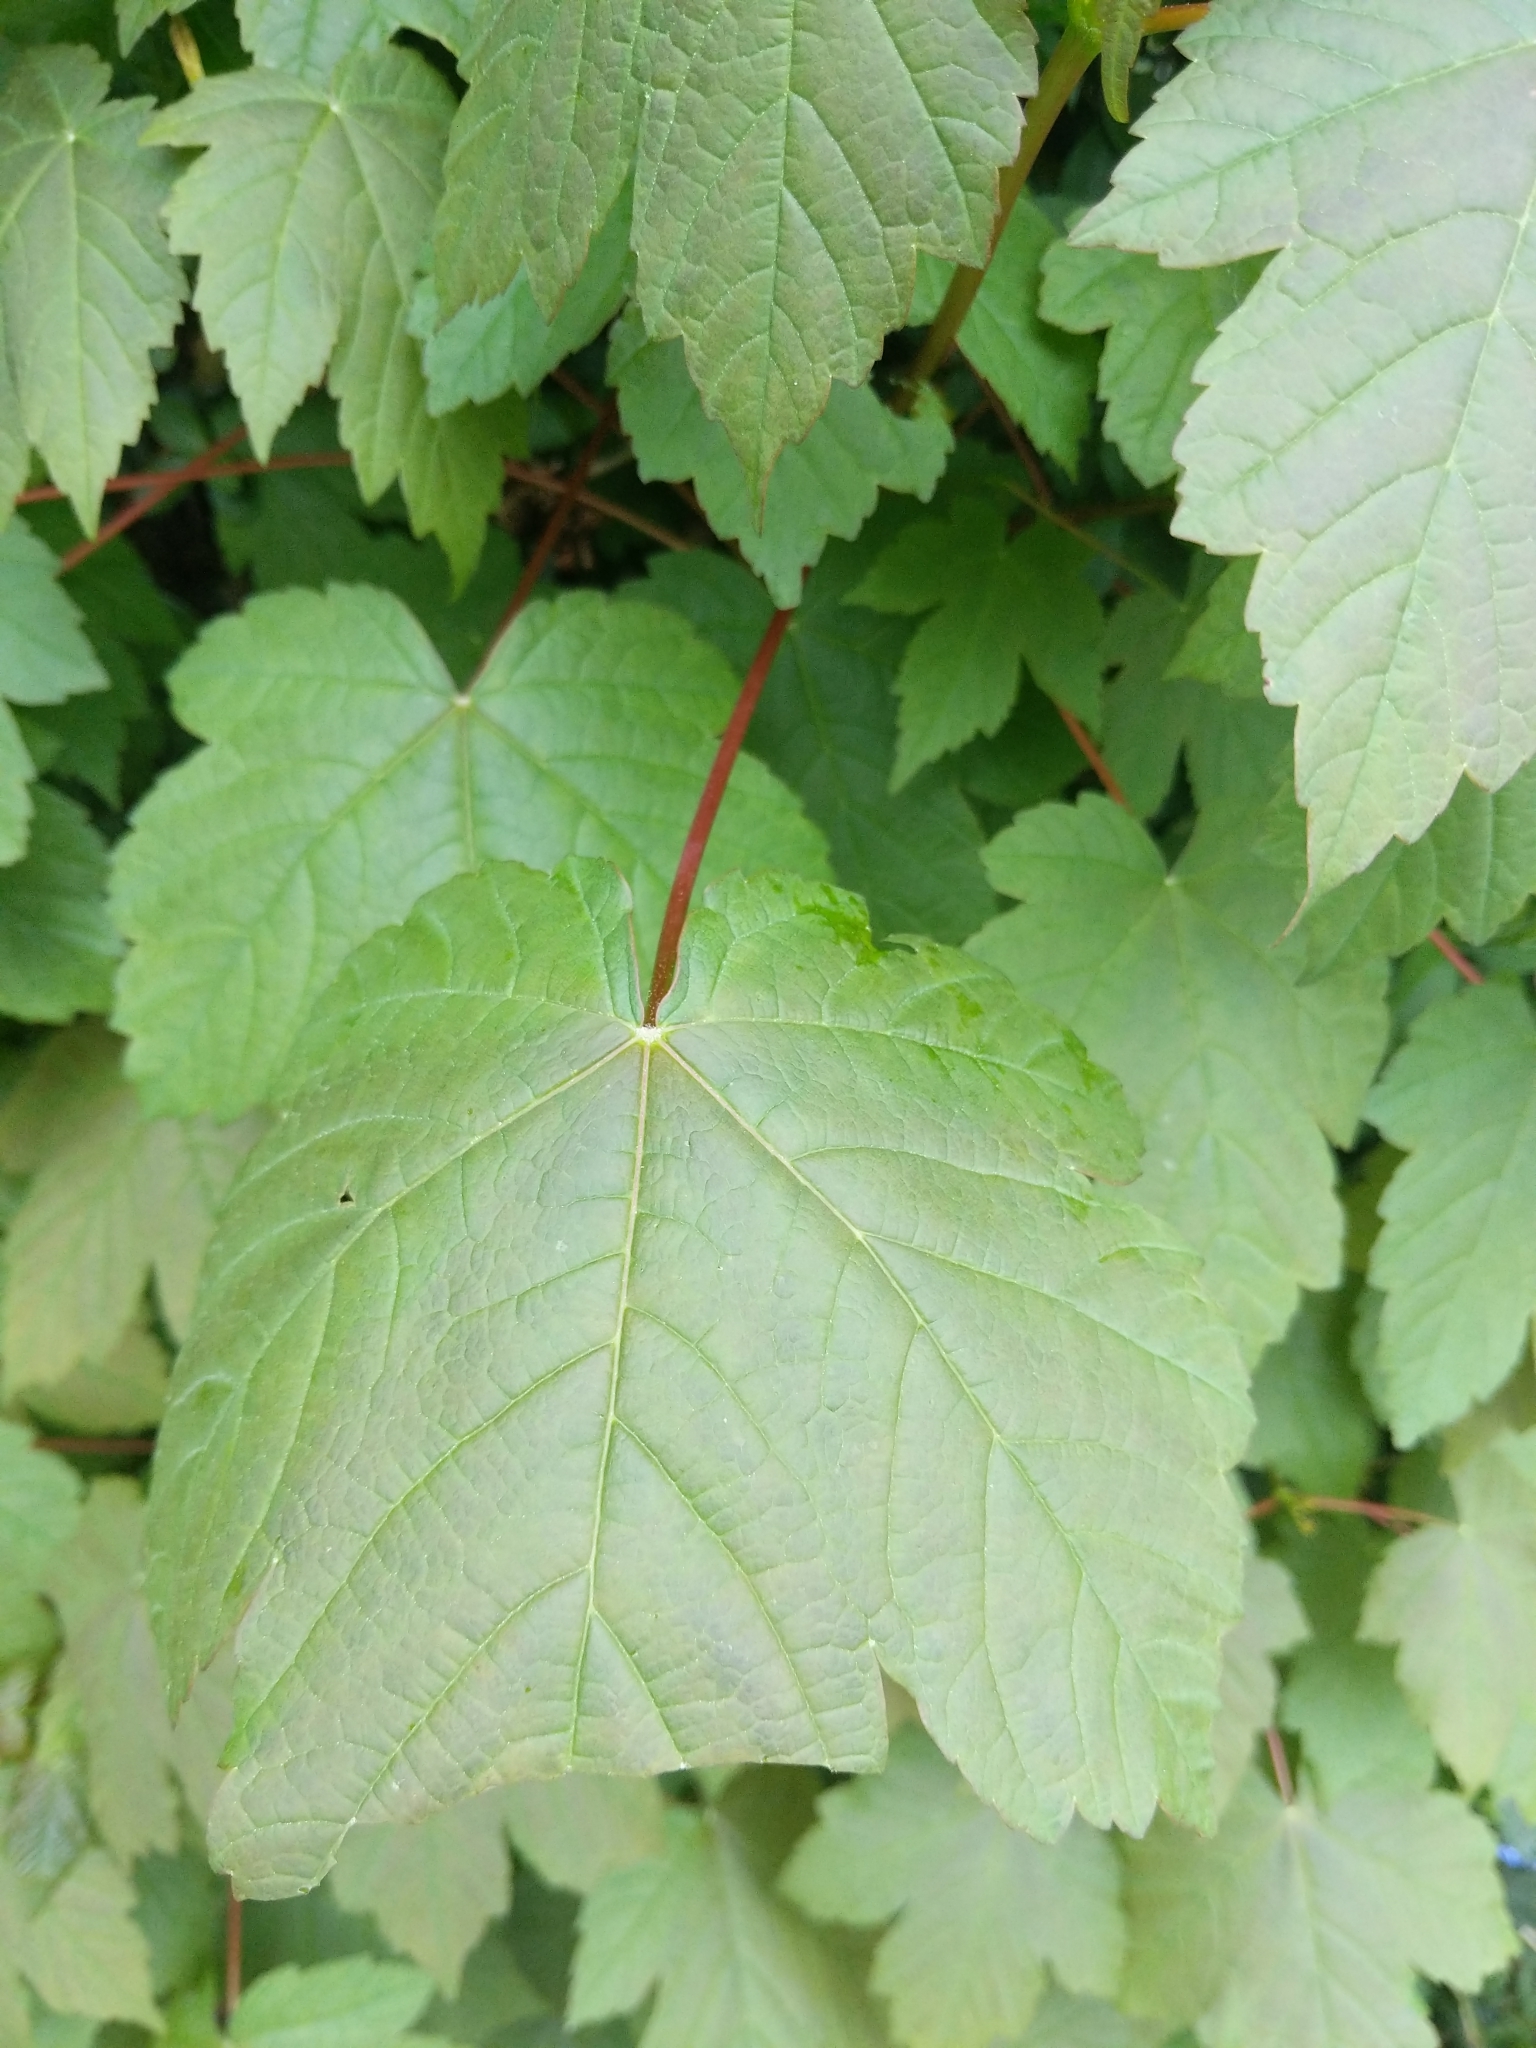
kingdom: Plantae
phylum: Tracheophyta
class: Magnoliopsida
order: Sapindales
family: Sapindaceae
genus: Acer
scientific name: Acer pseudoplatanus
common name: Sycamore
